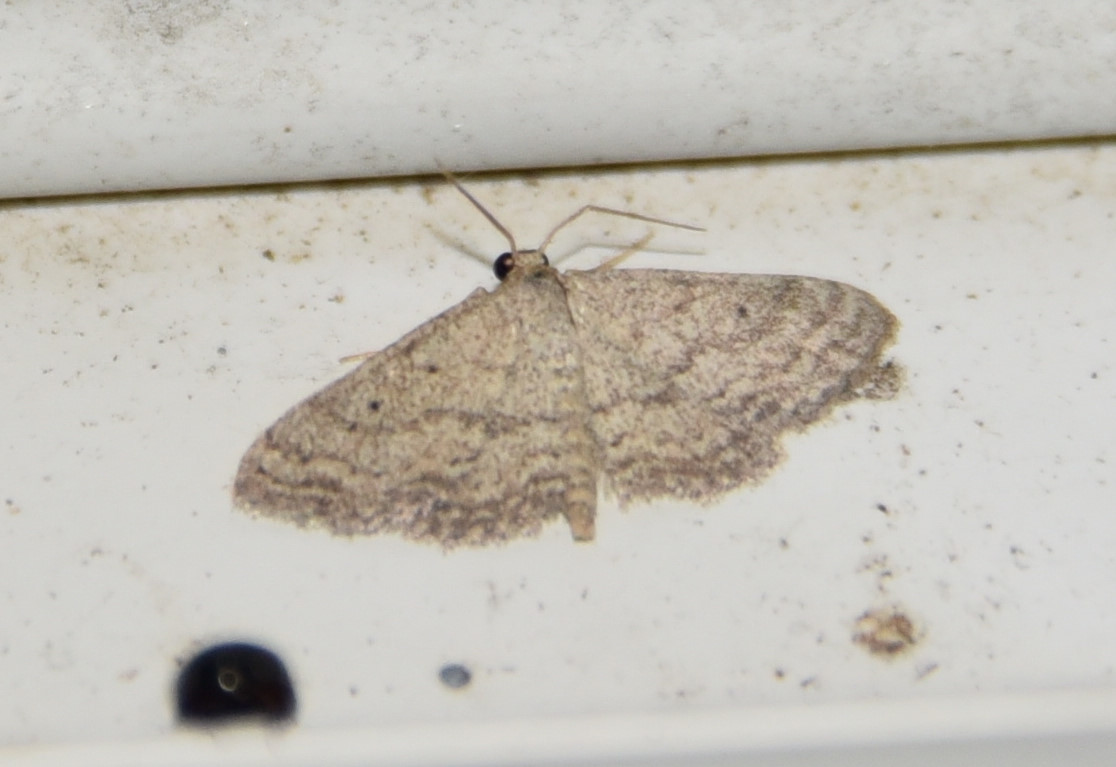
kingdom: Animalia
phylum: Arthropoda
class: Insecta
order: Lepidoptera
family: Geometridae
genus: Lobocleta
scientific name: Lobocleta ossularia
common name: Drab brown wave
